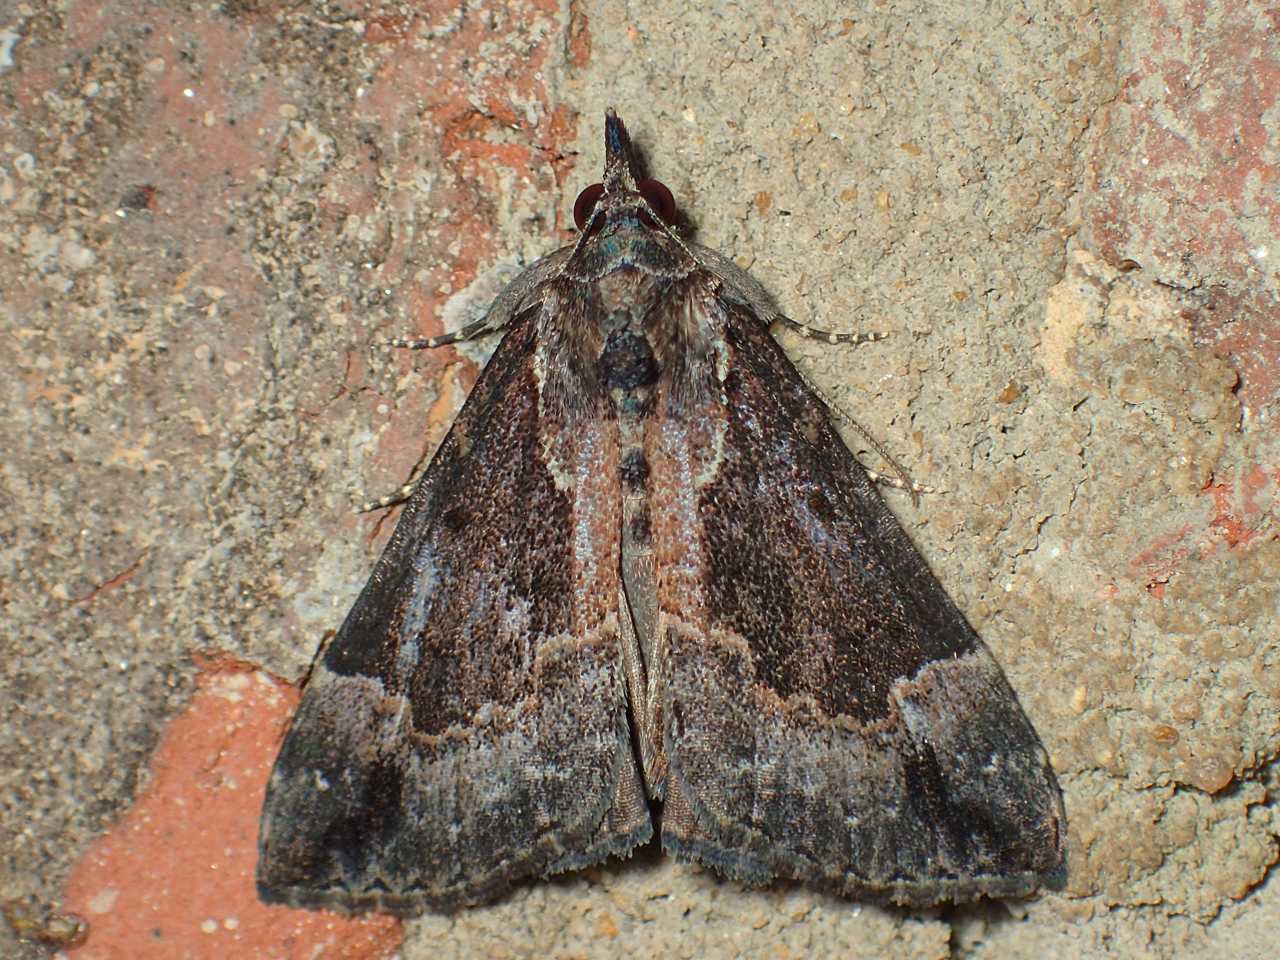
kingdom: Animalia
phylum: Arthropoda
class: Insecta
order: Lepidoptera
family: Erebidae
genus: Hypena
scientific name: Hypena palparia
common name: Mottled bomolocha moth
